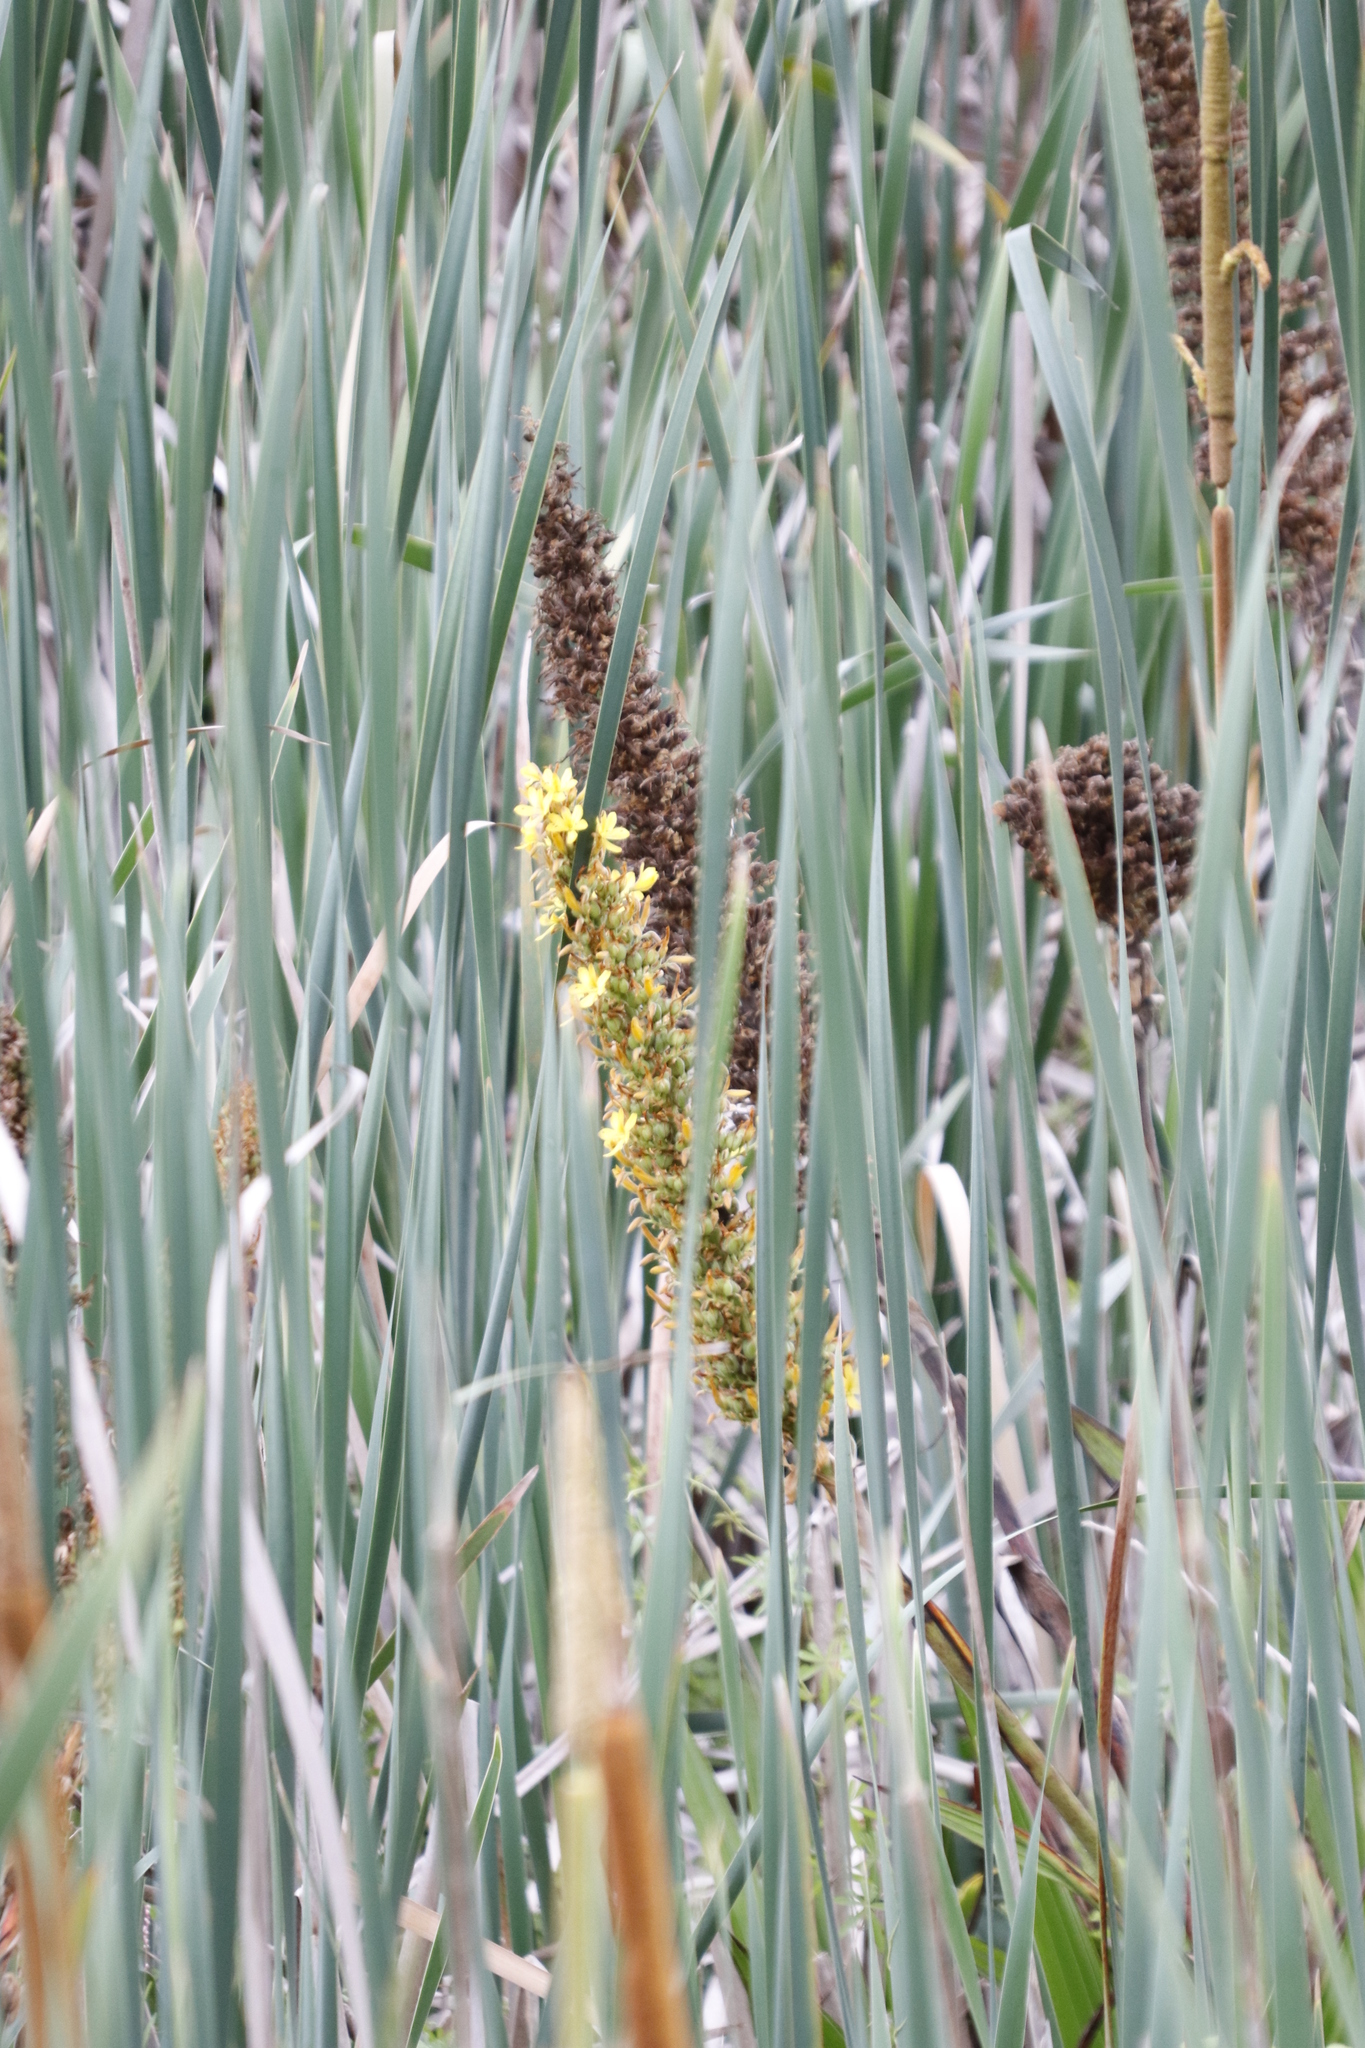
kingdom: Plantae
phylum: Tracheophyta
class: Liliopsida
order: Commelinales
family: Haemodoraceae
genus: Wachendorfia
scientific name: Wachendorfia thyrsiflora
